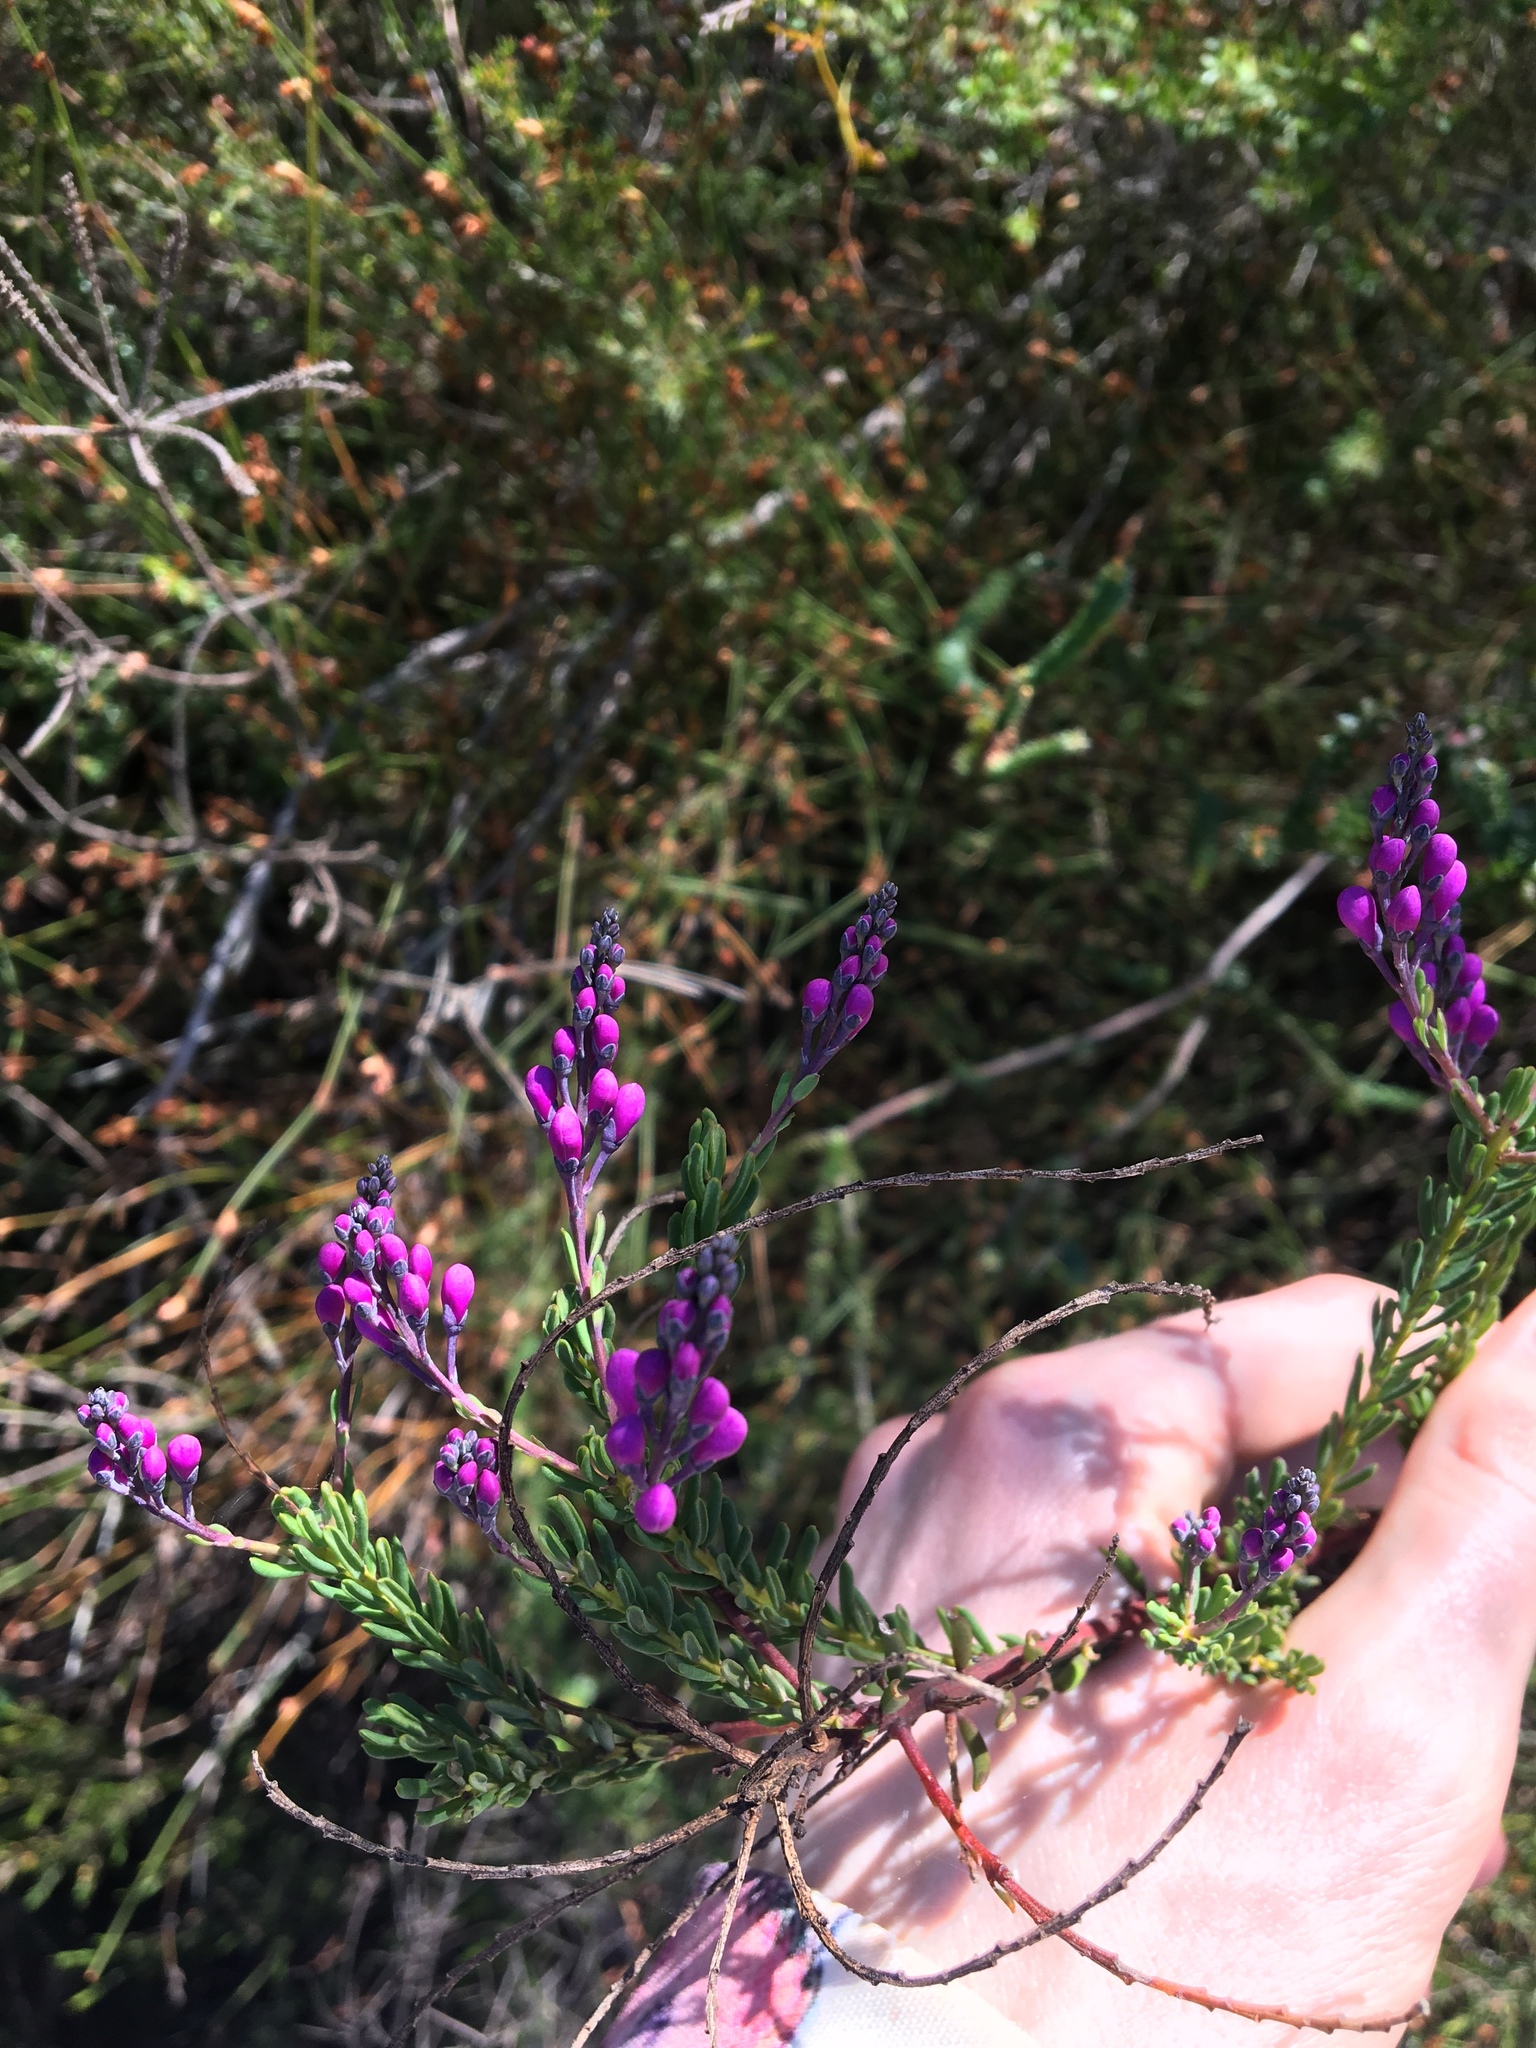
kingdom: Plantae
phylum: Tracheophyta
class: Magnoliopsida
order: Fabales
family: Polygalaceae
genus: Comesperma
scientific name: Comesperma ericinum
